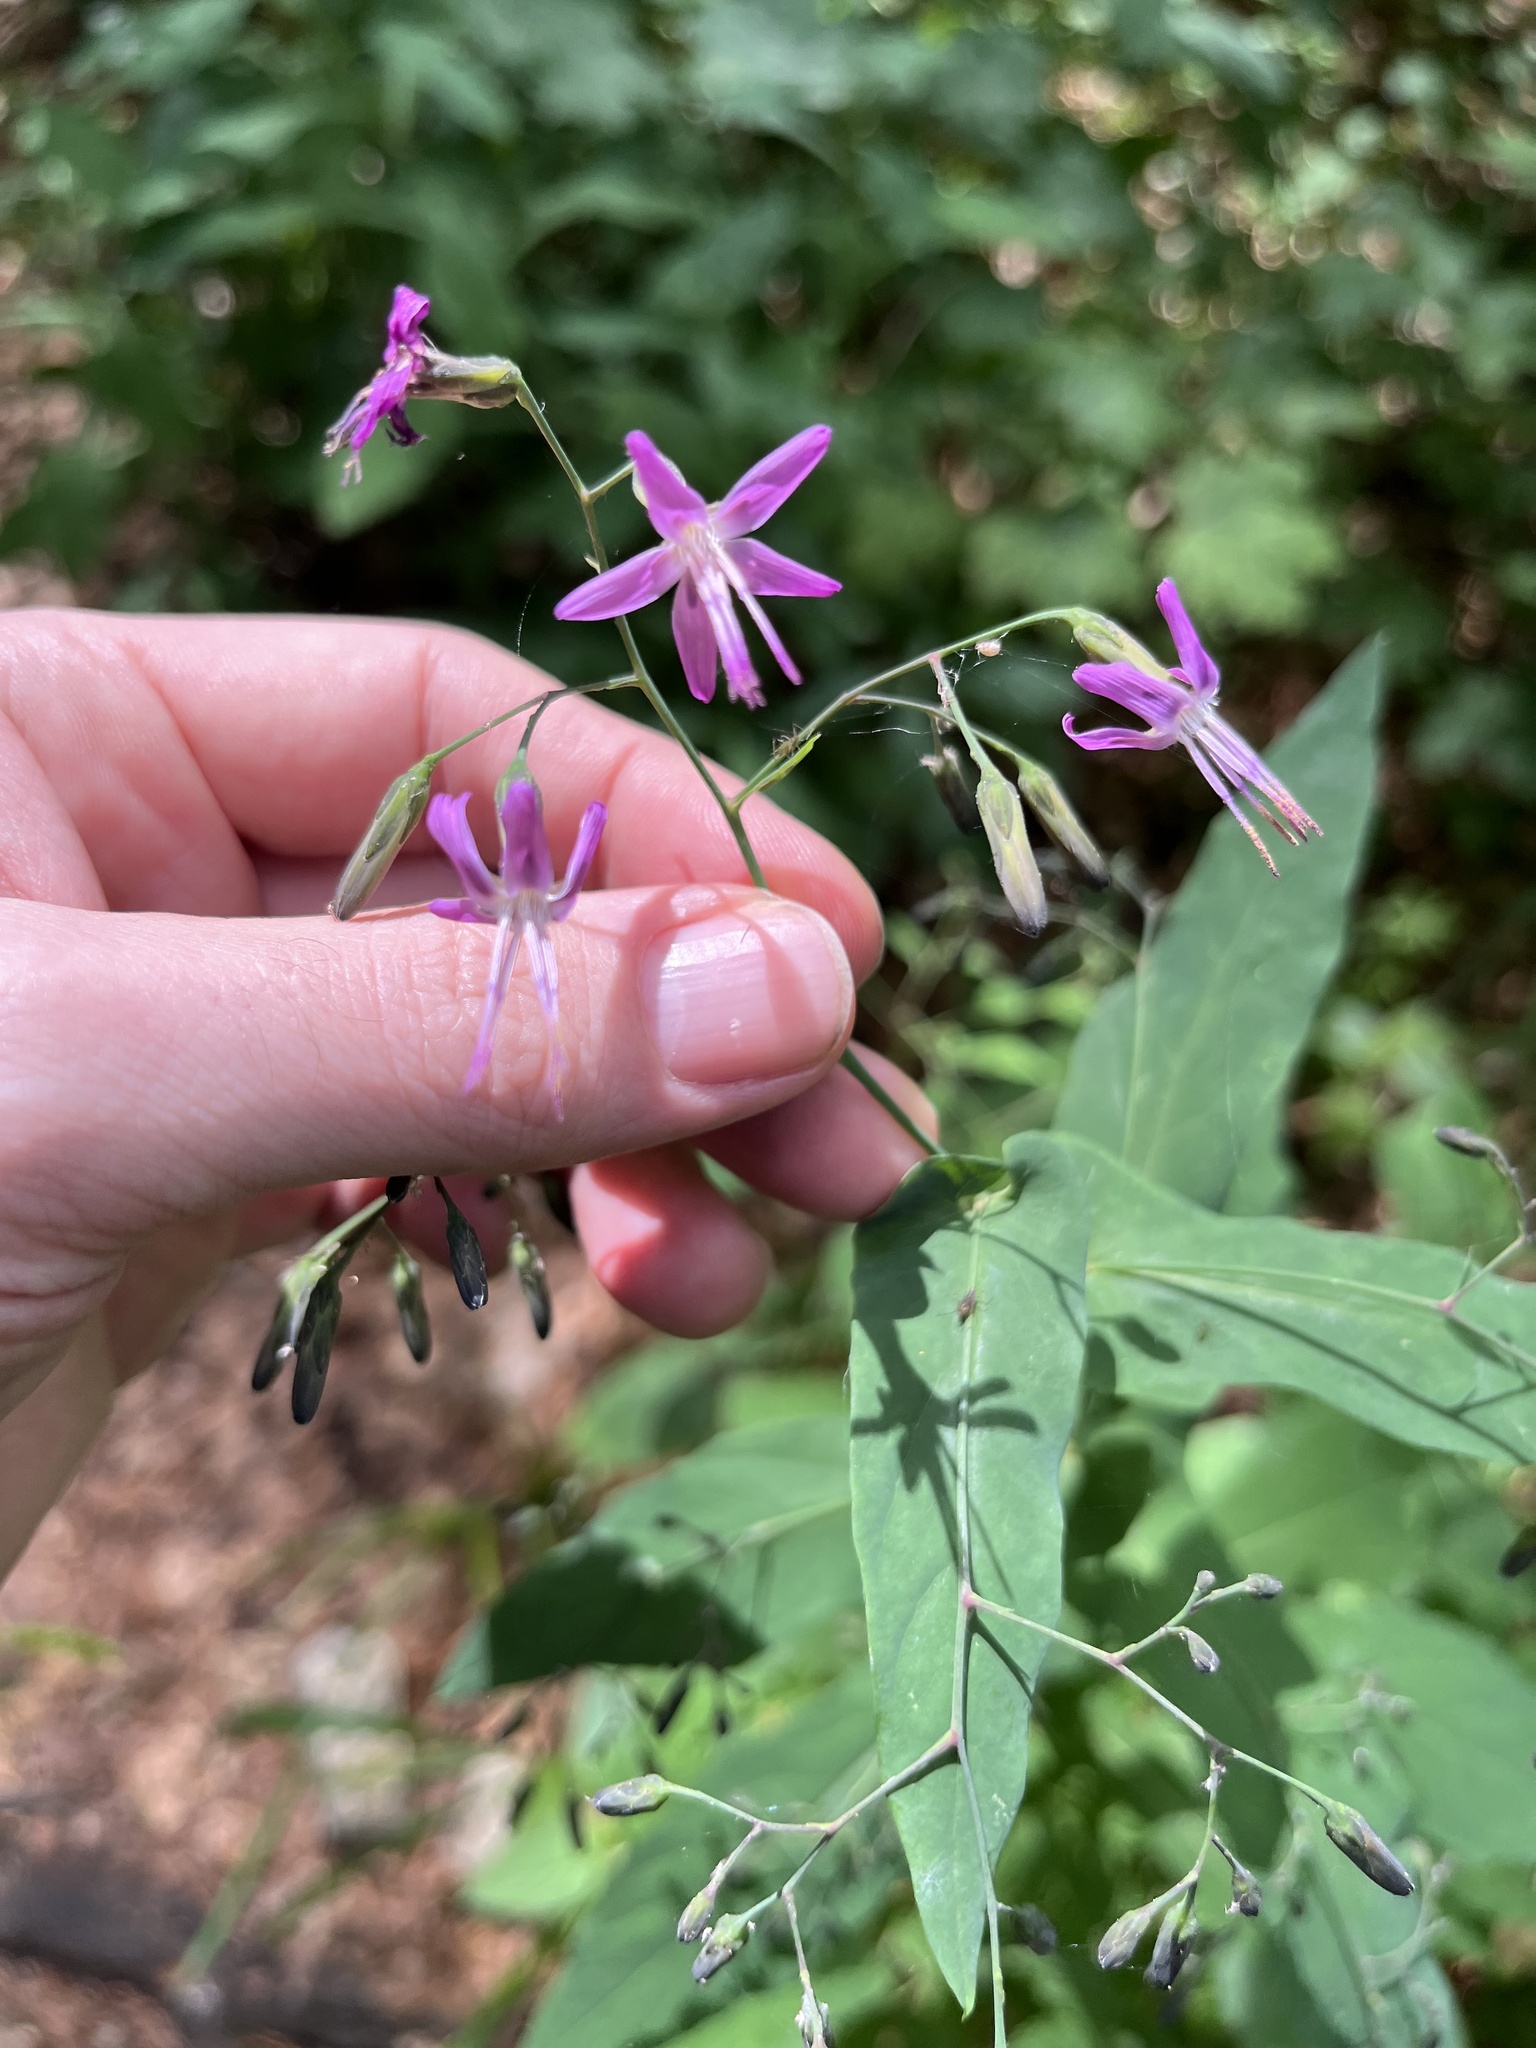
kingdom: Plantae
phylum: Tracheophyta
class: Magnoliopsida
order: Asterales
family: Asteraceae
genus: Prenanthes
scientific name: Prenanthes purpurea
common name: Purple lettuce
